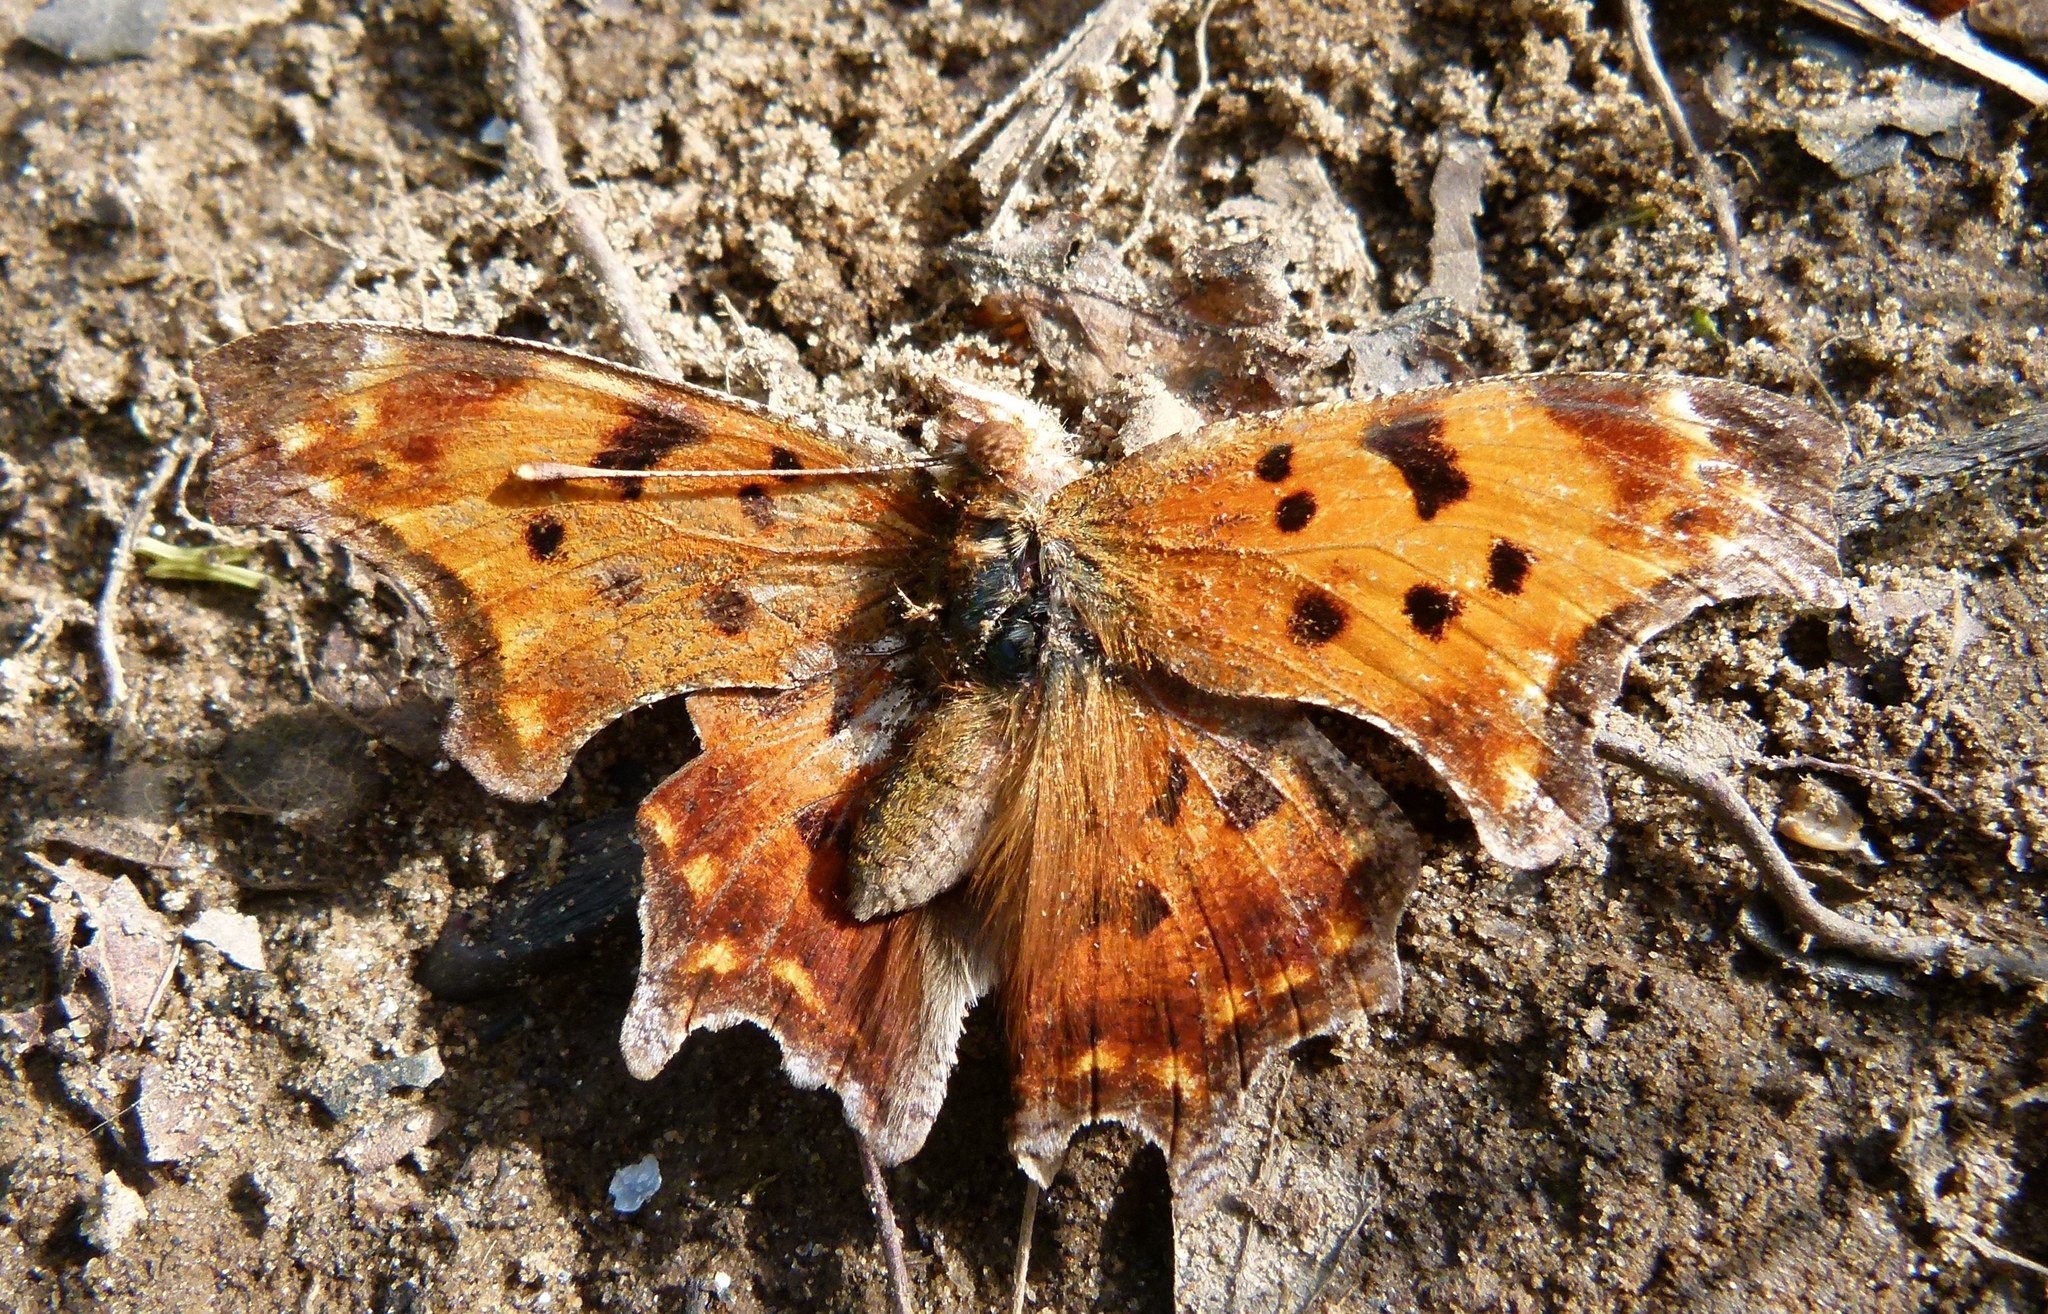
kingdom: Animalia
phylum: Arthropoda
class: Insecta
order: Lepidoptera
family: Nymphalidae
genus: Polygonia
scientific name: Polygonia comma
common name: Eastern comma
